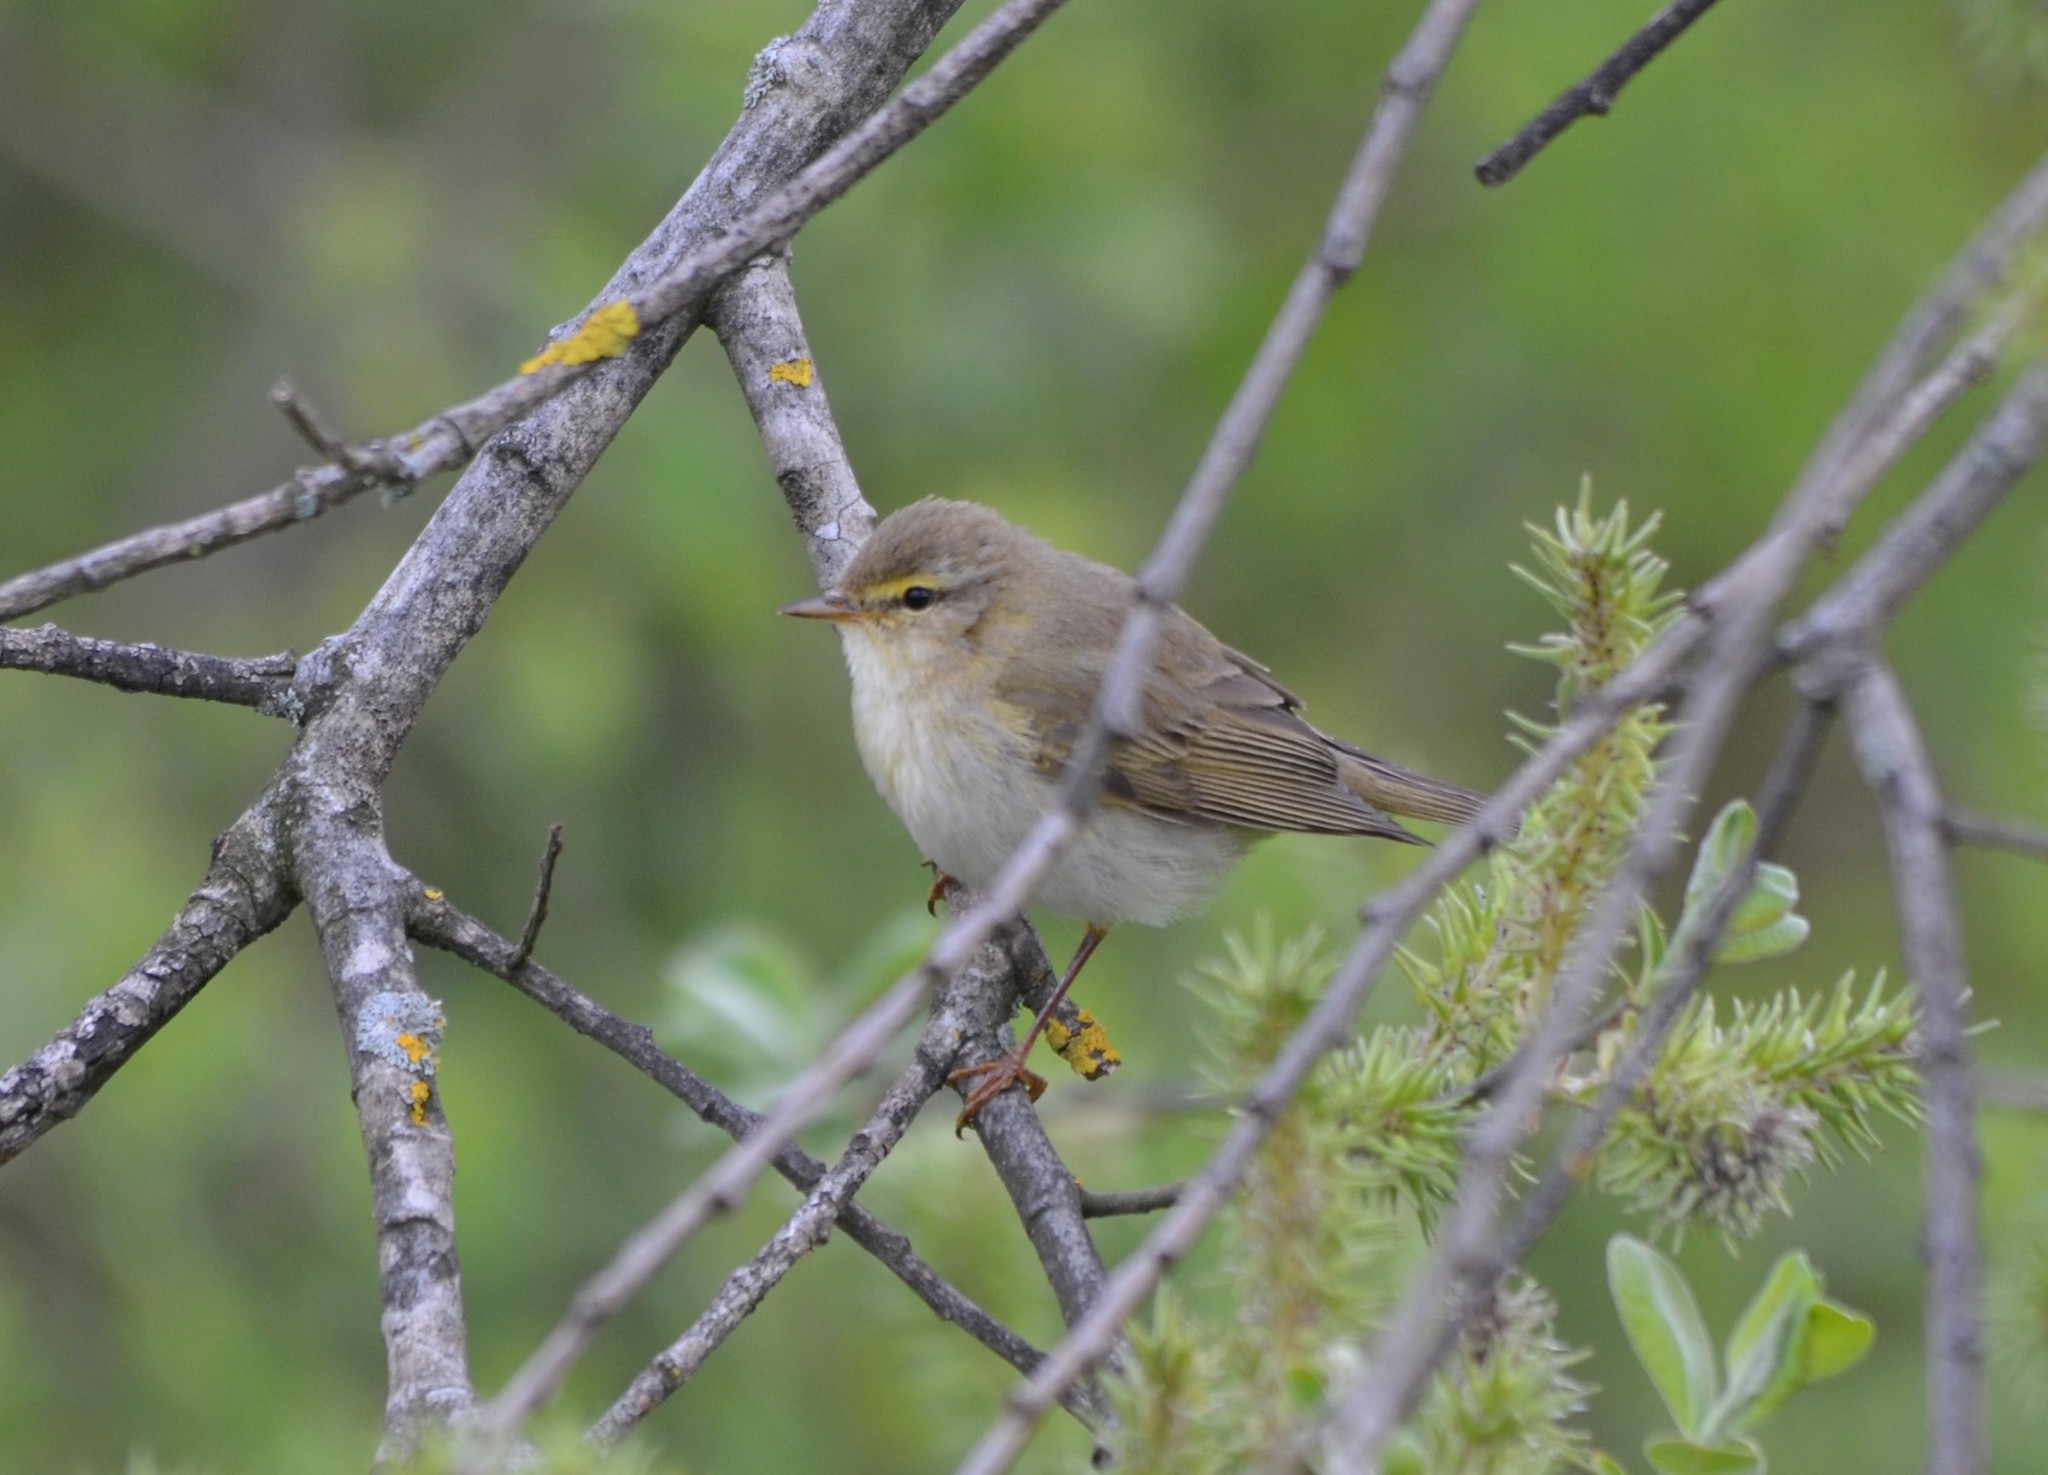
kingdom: Animalia
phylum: Chordata
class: Aves
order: Passeriformes
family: Phylloscopidae
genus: Phylloscopus
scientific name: Phylloscopus trochilus
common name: Willow warbler
